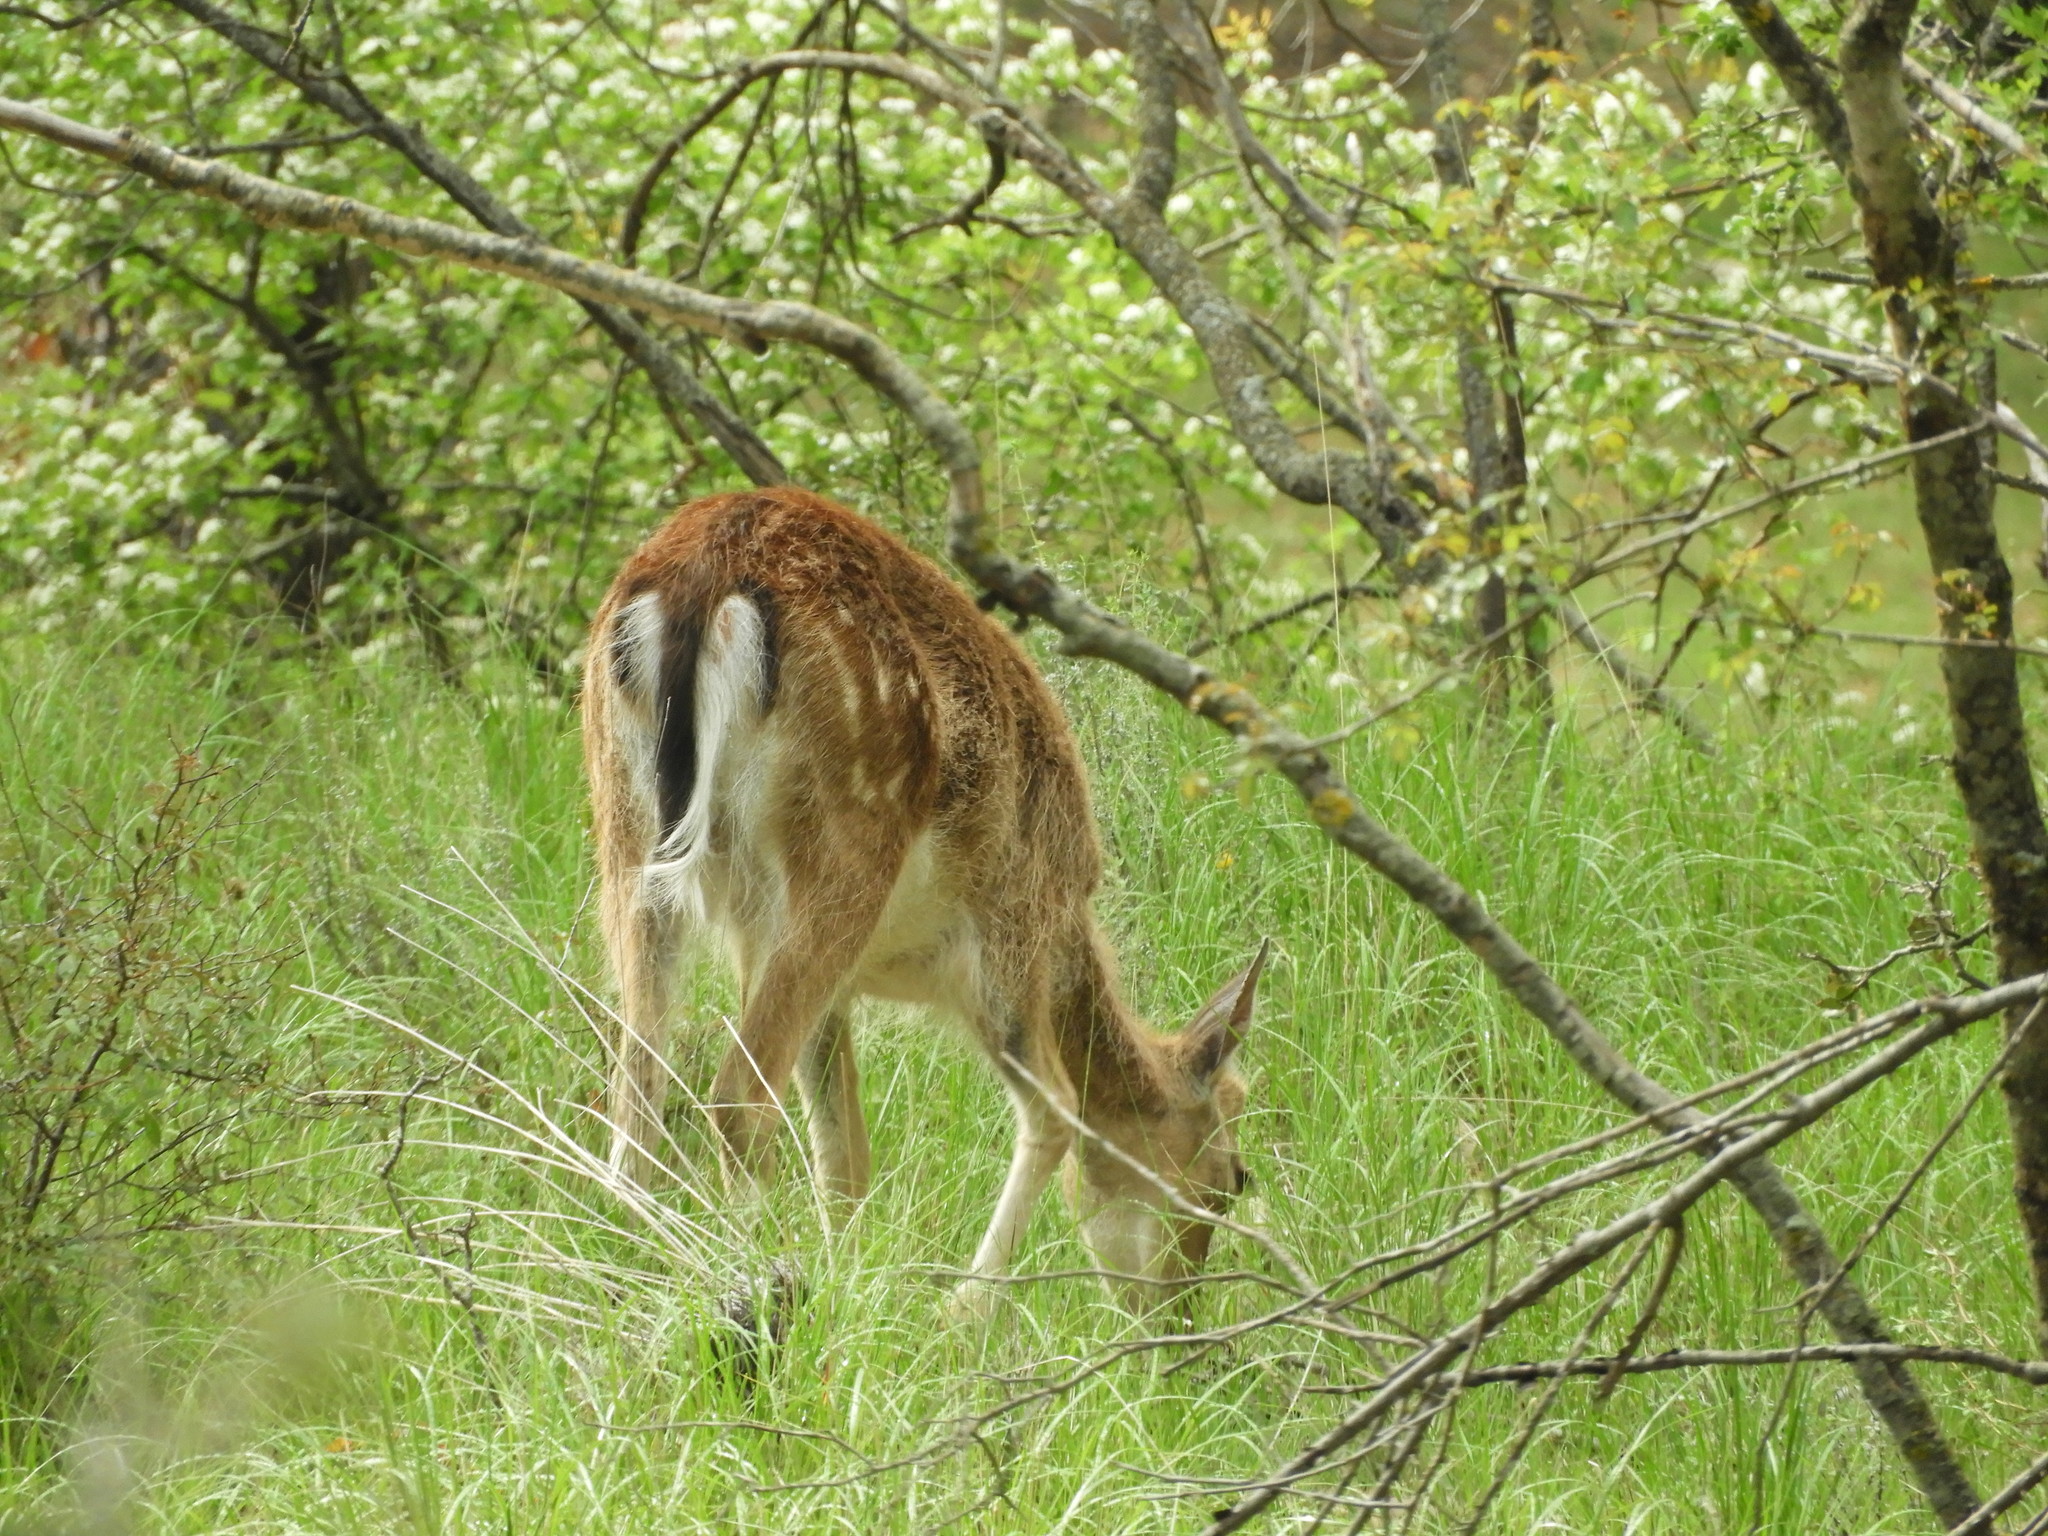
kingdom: Animalia
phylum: Chordata
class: Mammalia
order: Artiodactyla
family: Cervidae
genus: Dama
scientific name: Dama dama
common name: Fallow deer
